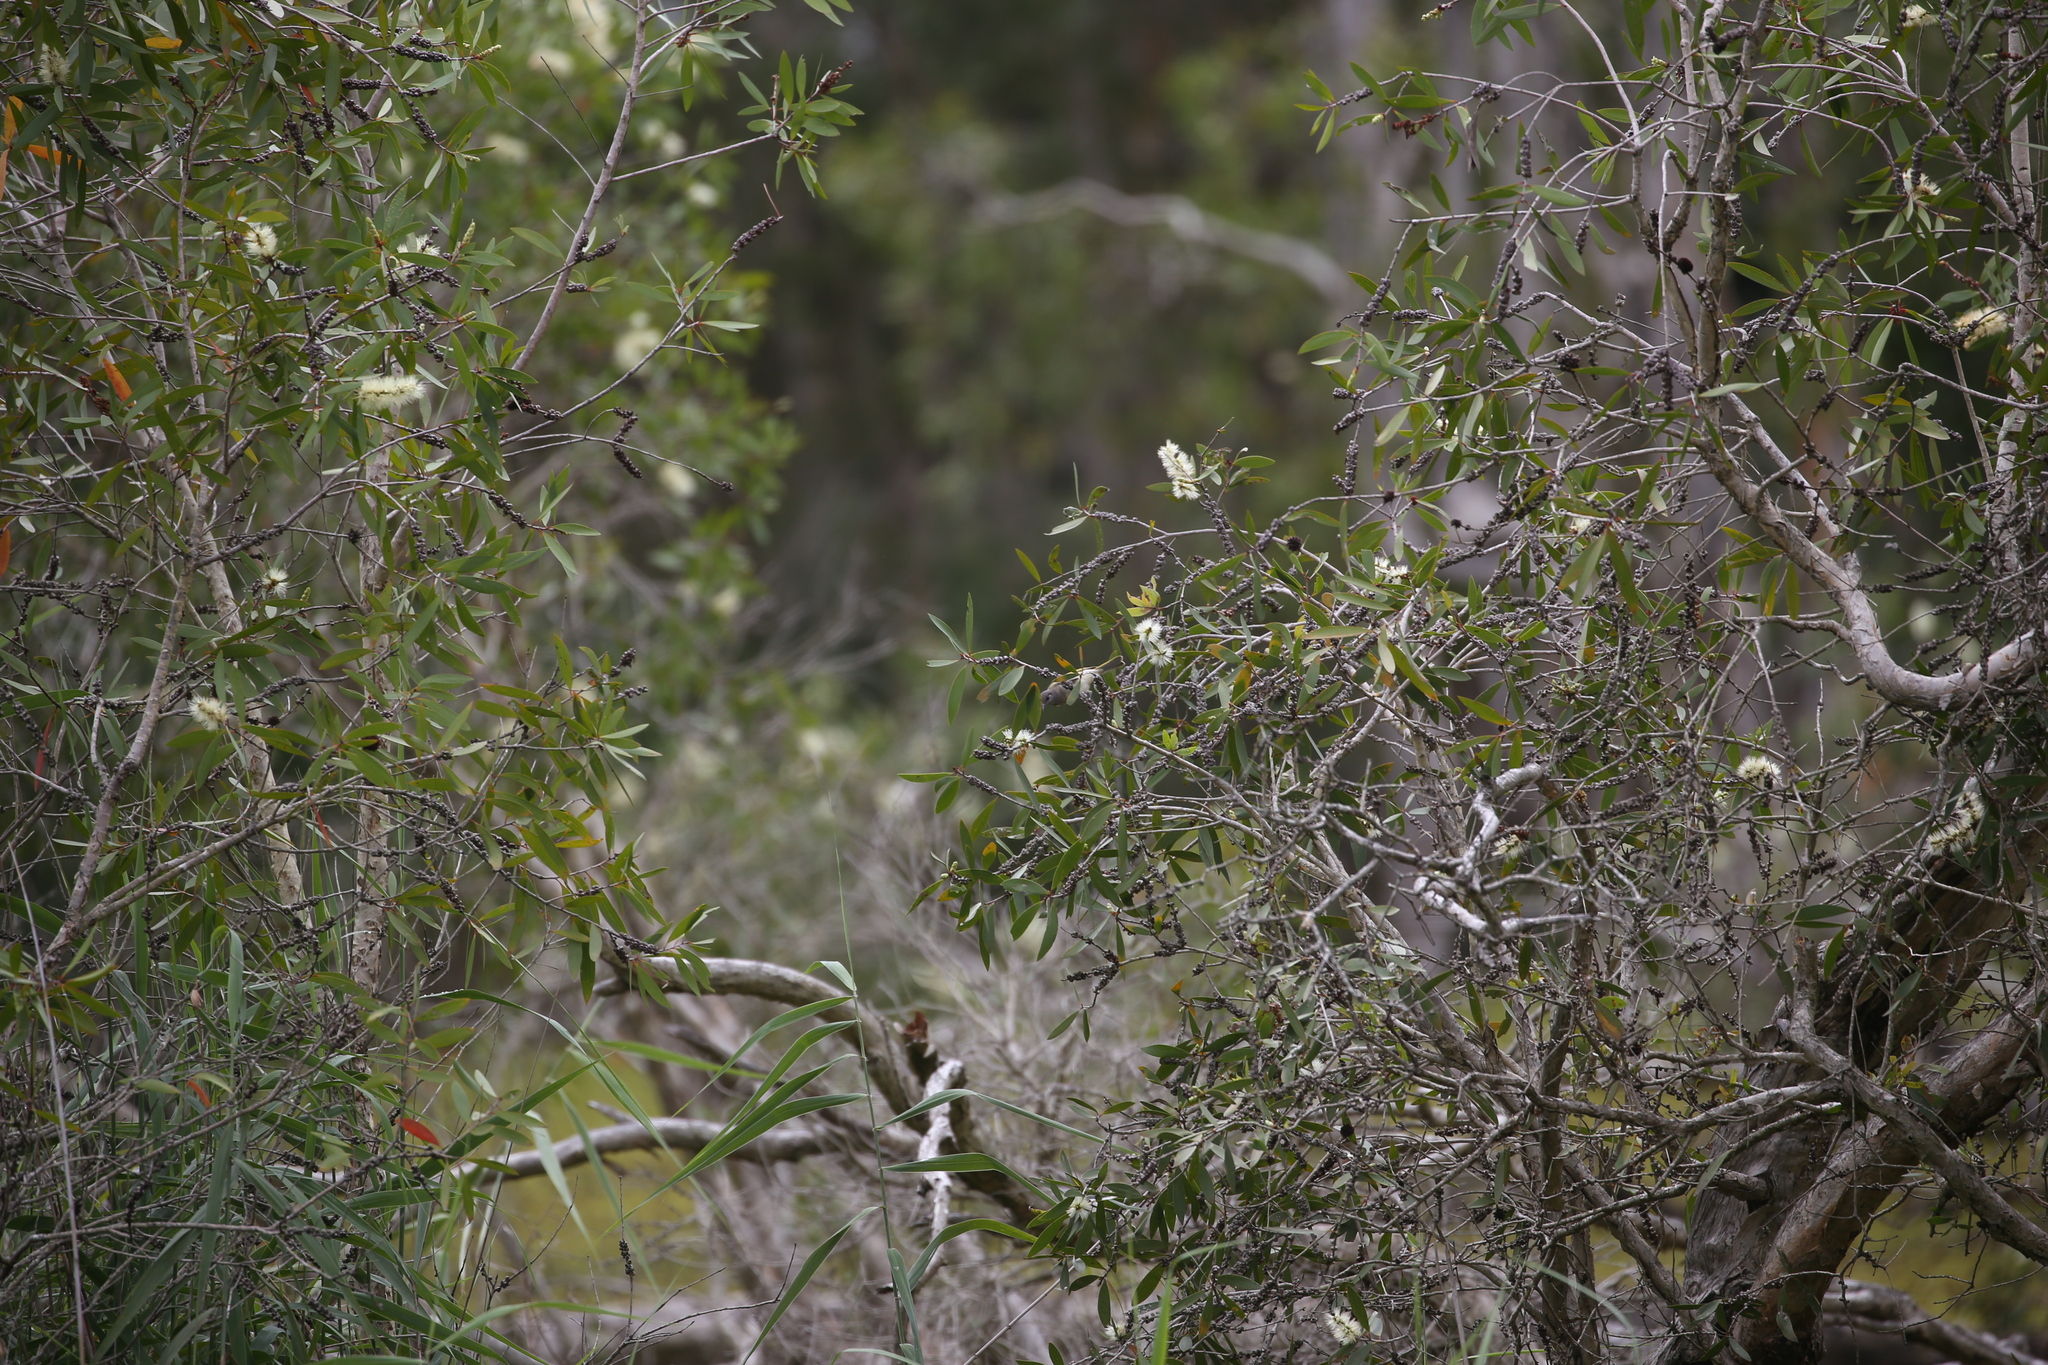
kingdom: Animalia
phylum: Chordata
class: Aves
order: Passeriformes
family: Meliphagidae
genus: Lichmera
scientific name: Lichmera indistincta
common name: Brown honeyeater
